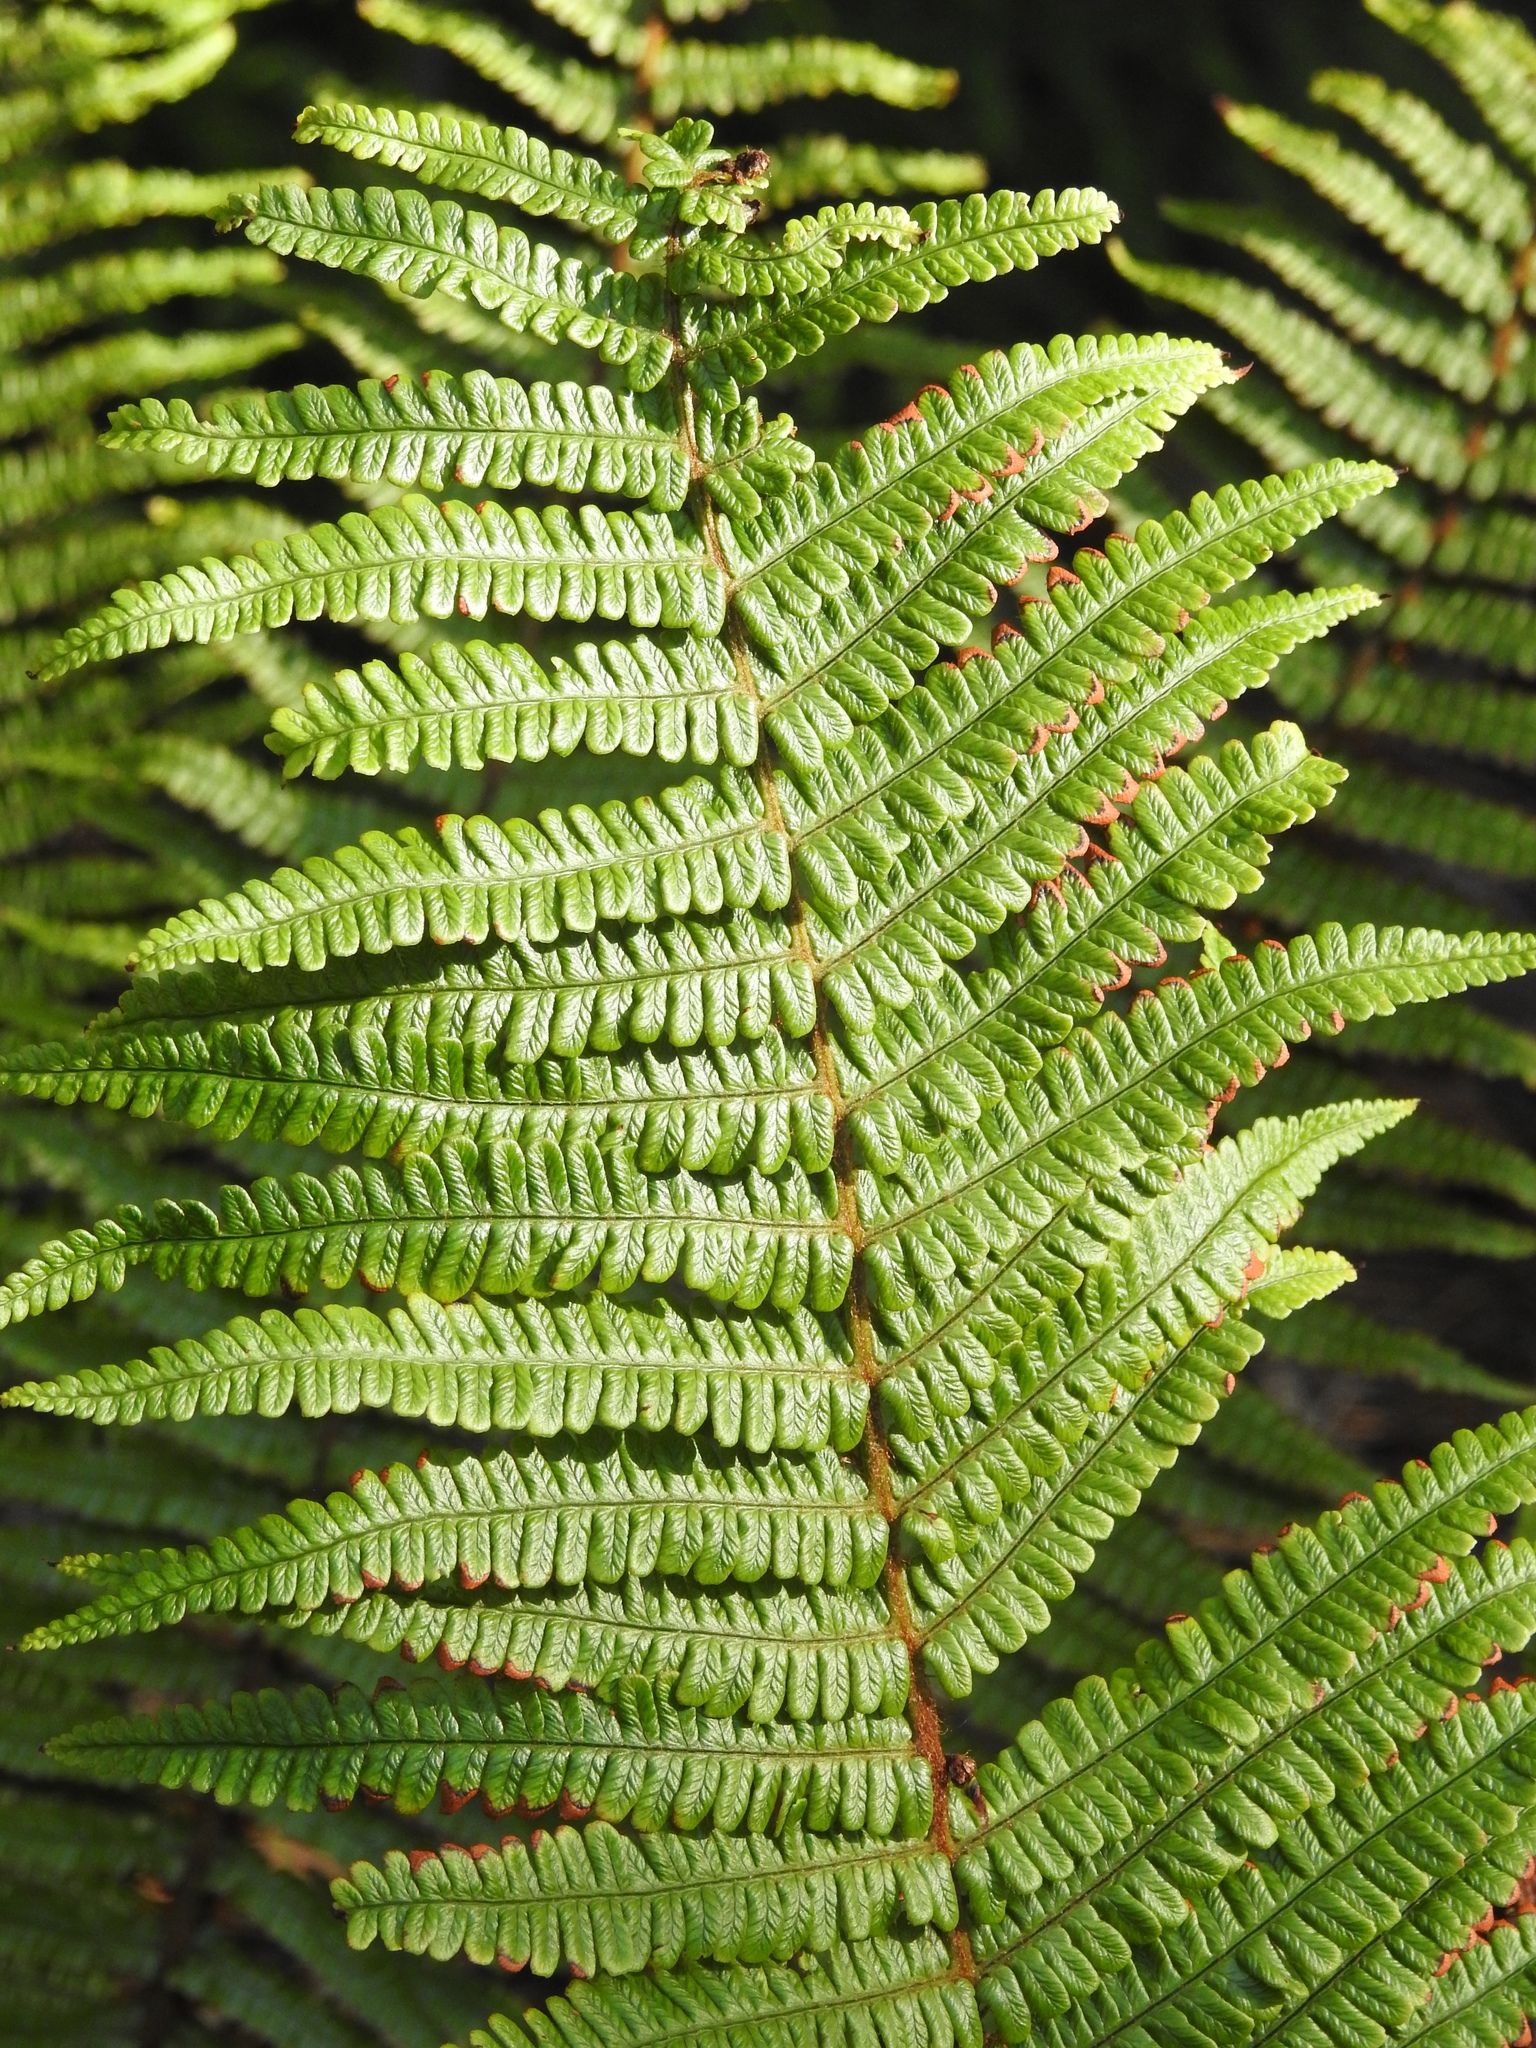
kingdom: Plantae
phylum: Tracheophyta
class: Polypodiopsida
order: Polypodiales
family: Dryopteridaceae
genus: Dryopteris
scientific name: Dryopteris wallichiana
